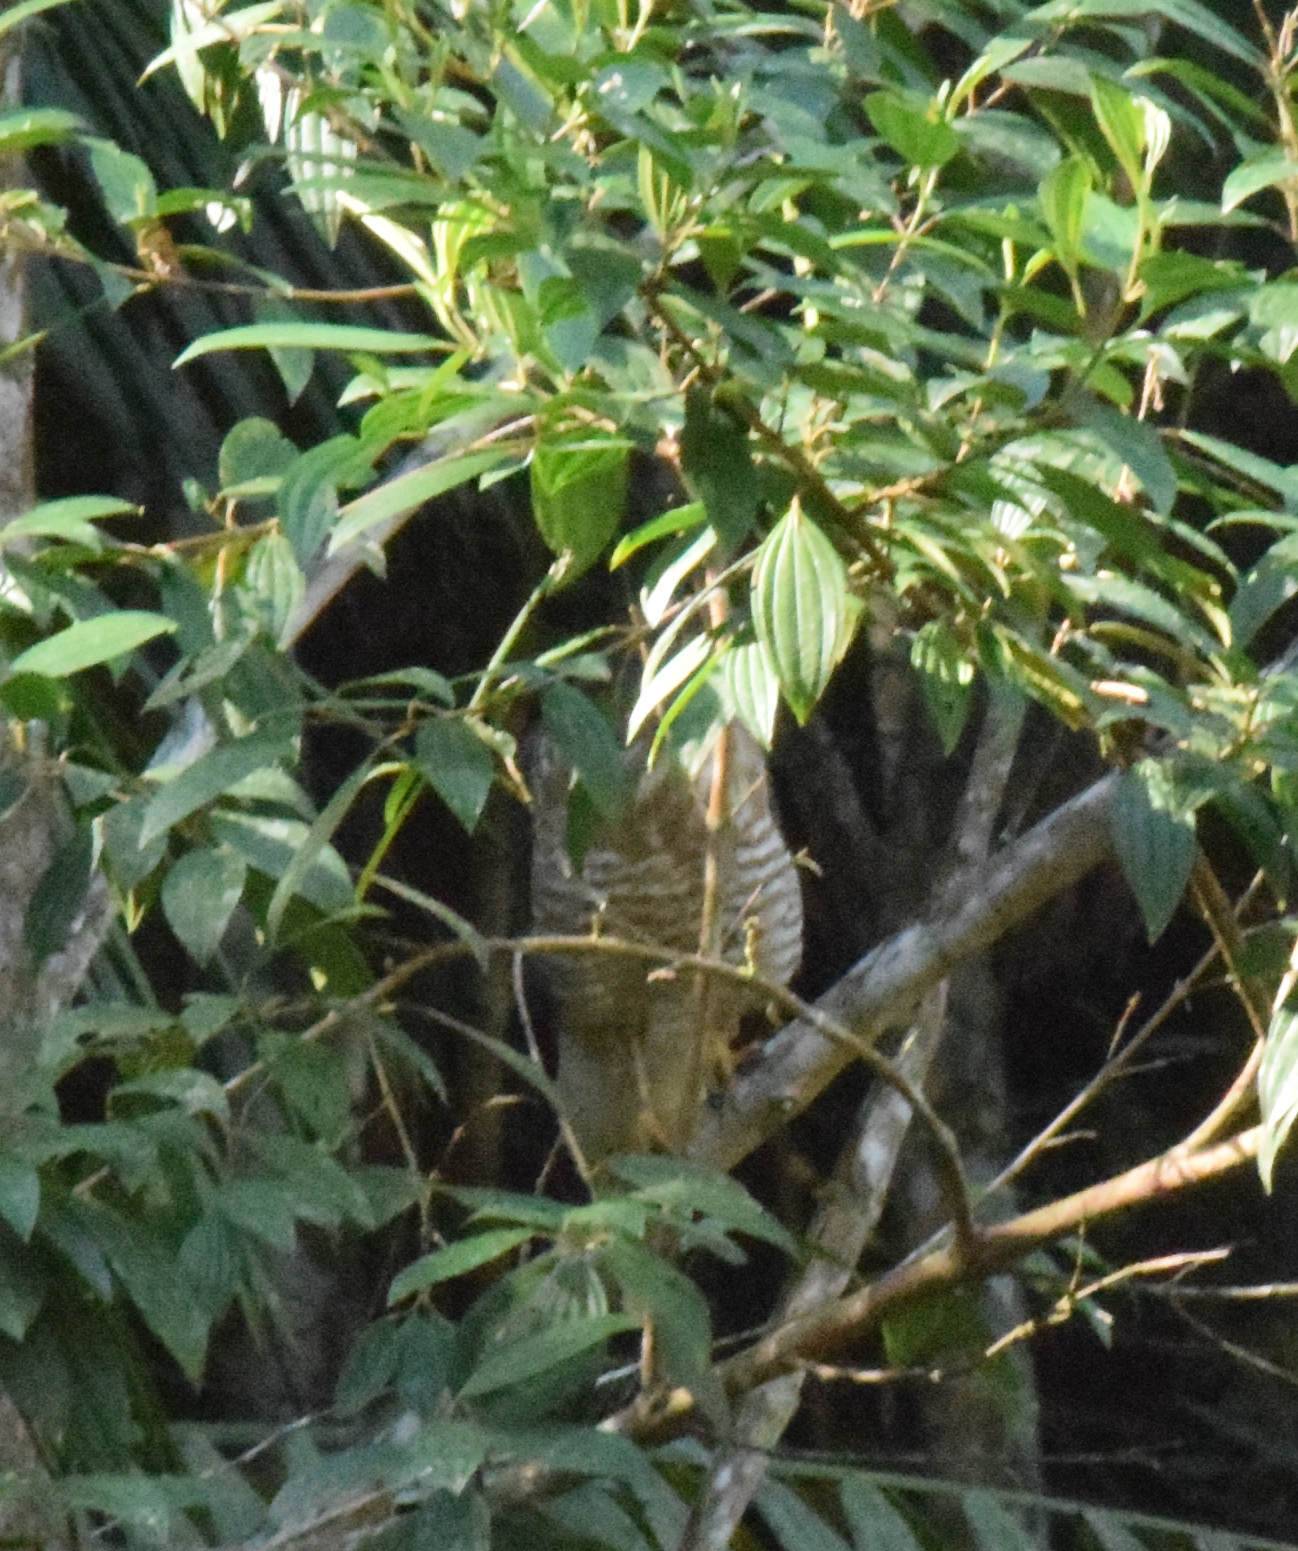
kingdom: Animalia
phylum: Chordata
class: Aves
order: Accipitriformes
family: Accipitridae
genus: Rupornis
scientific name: Rupornis magnirostris
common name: Roadside hawk
